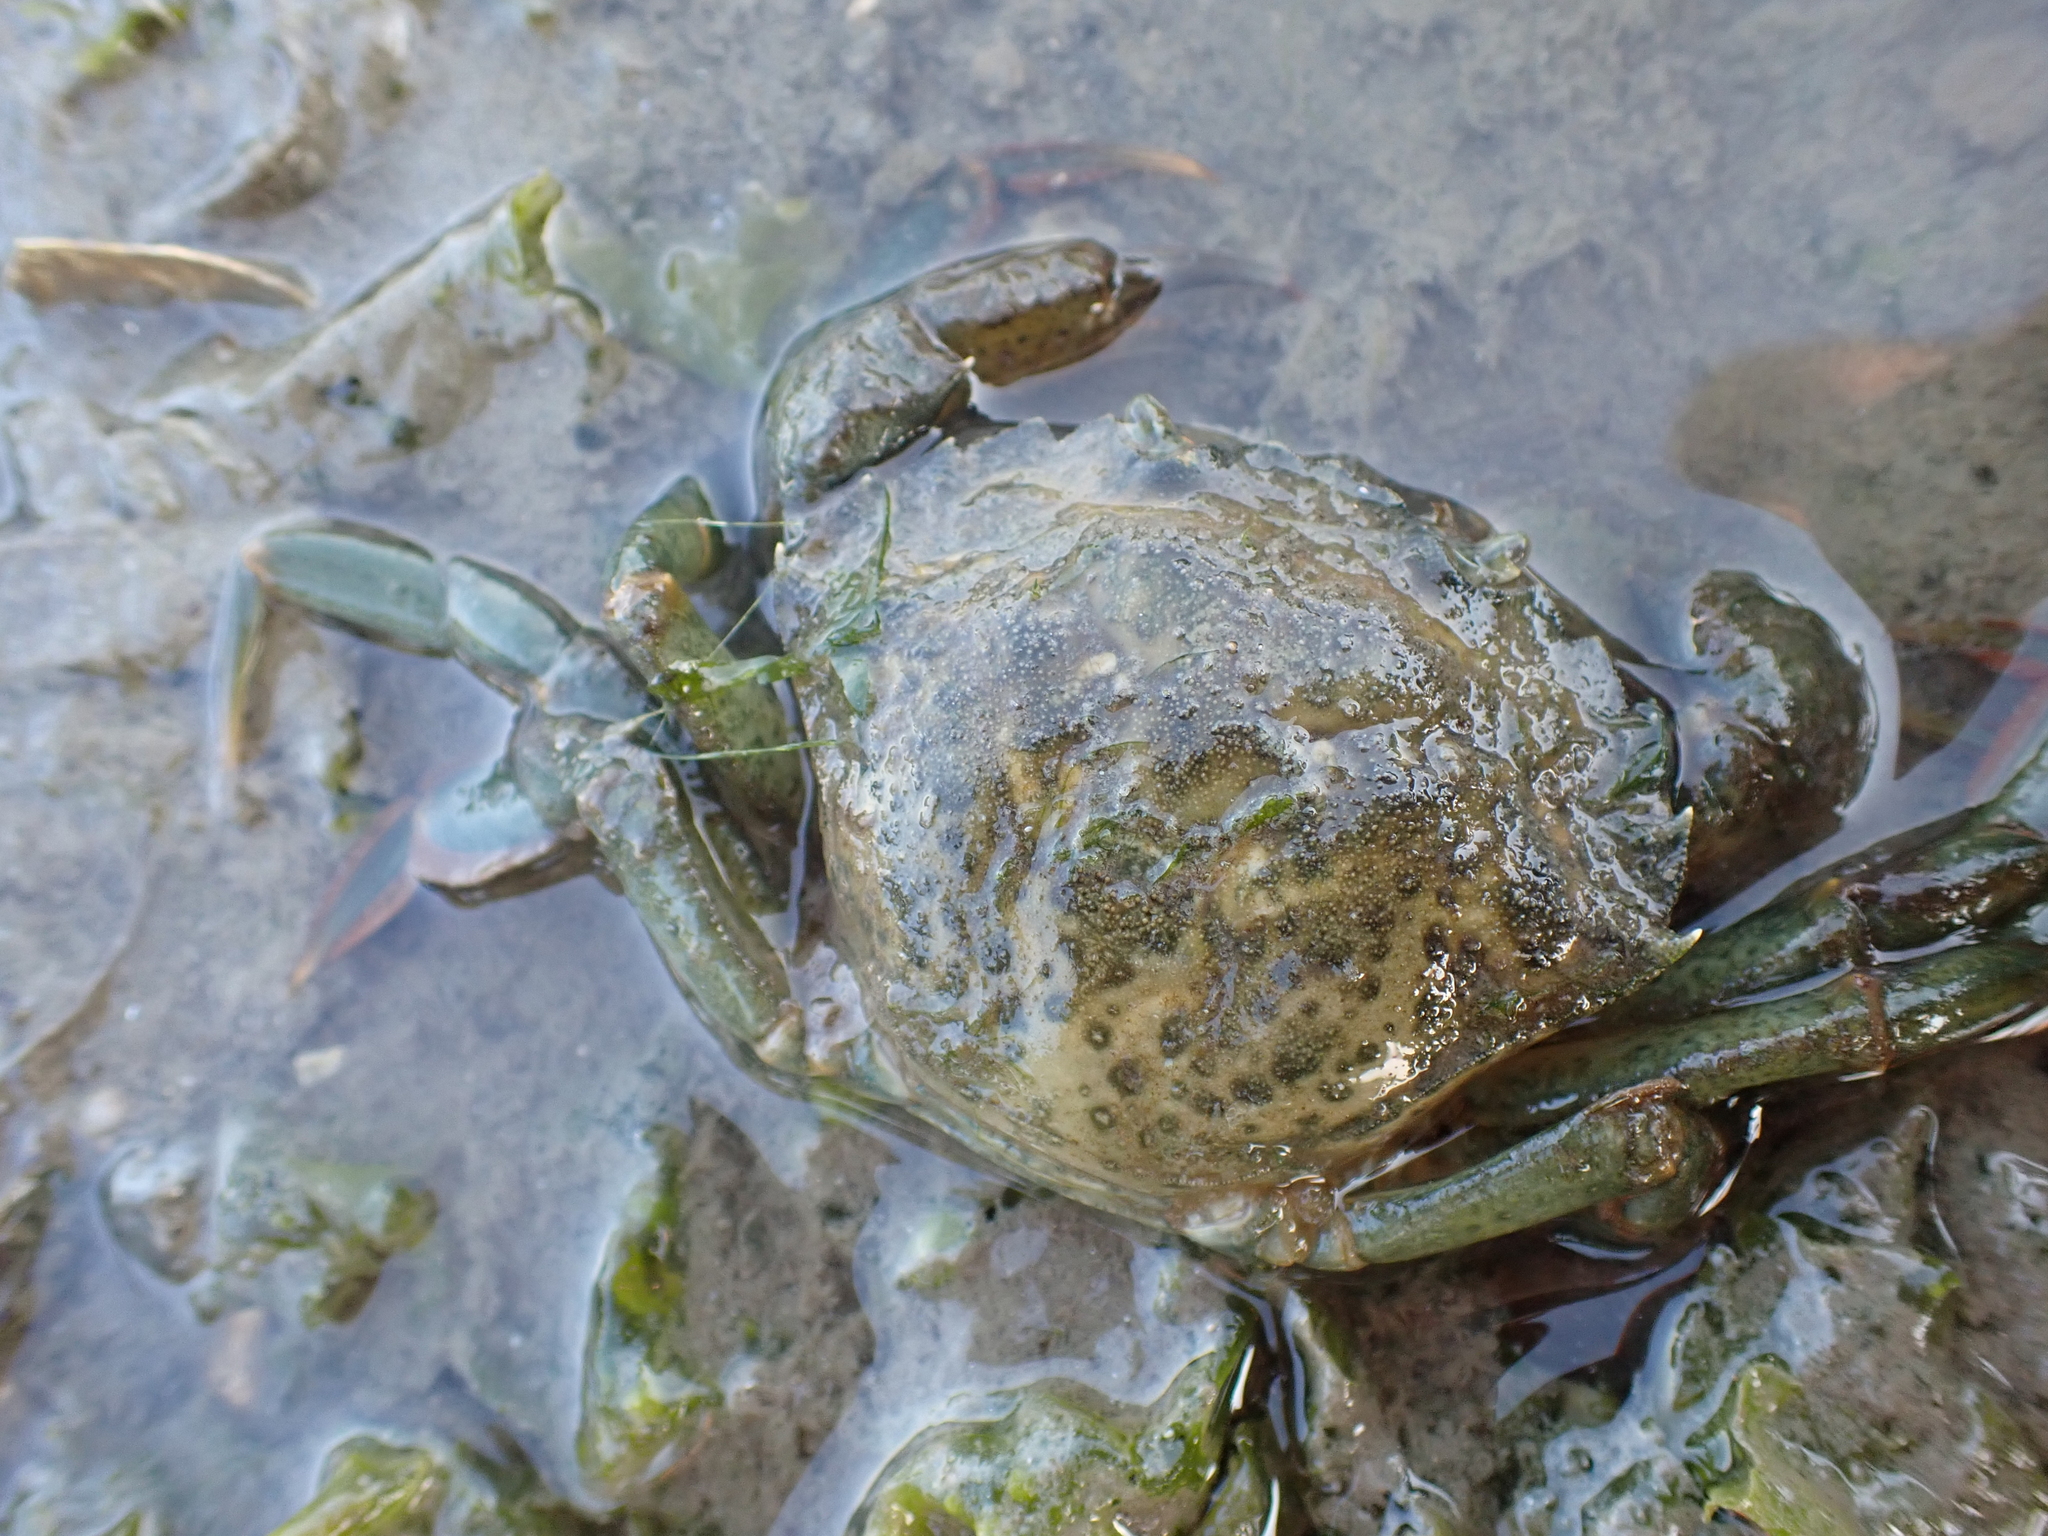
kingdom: Animalia
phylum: Arthropoda
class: Malacostraca
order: Decapoda
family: Carcinidae
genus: Carcinus
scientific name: Carcinus maenas
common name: European green crab
